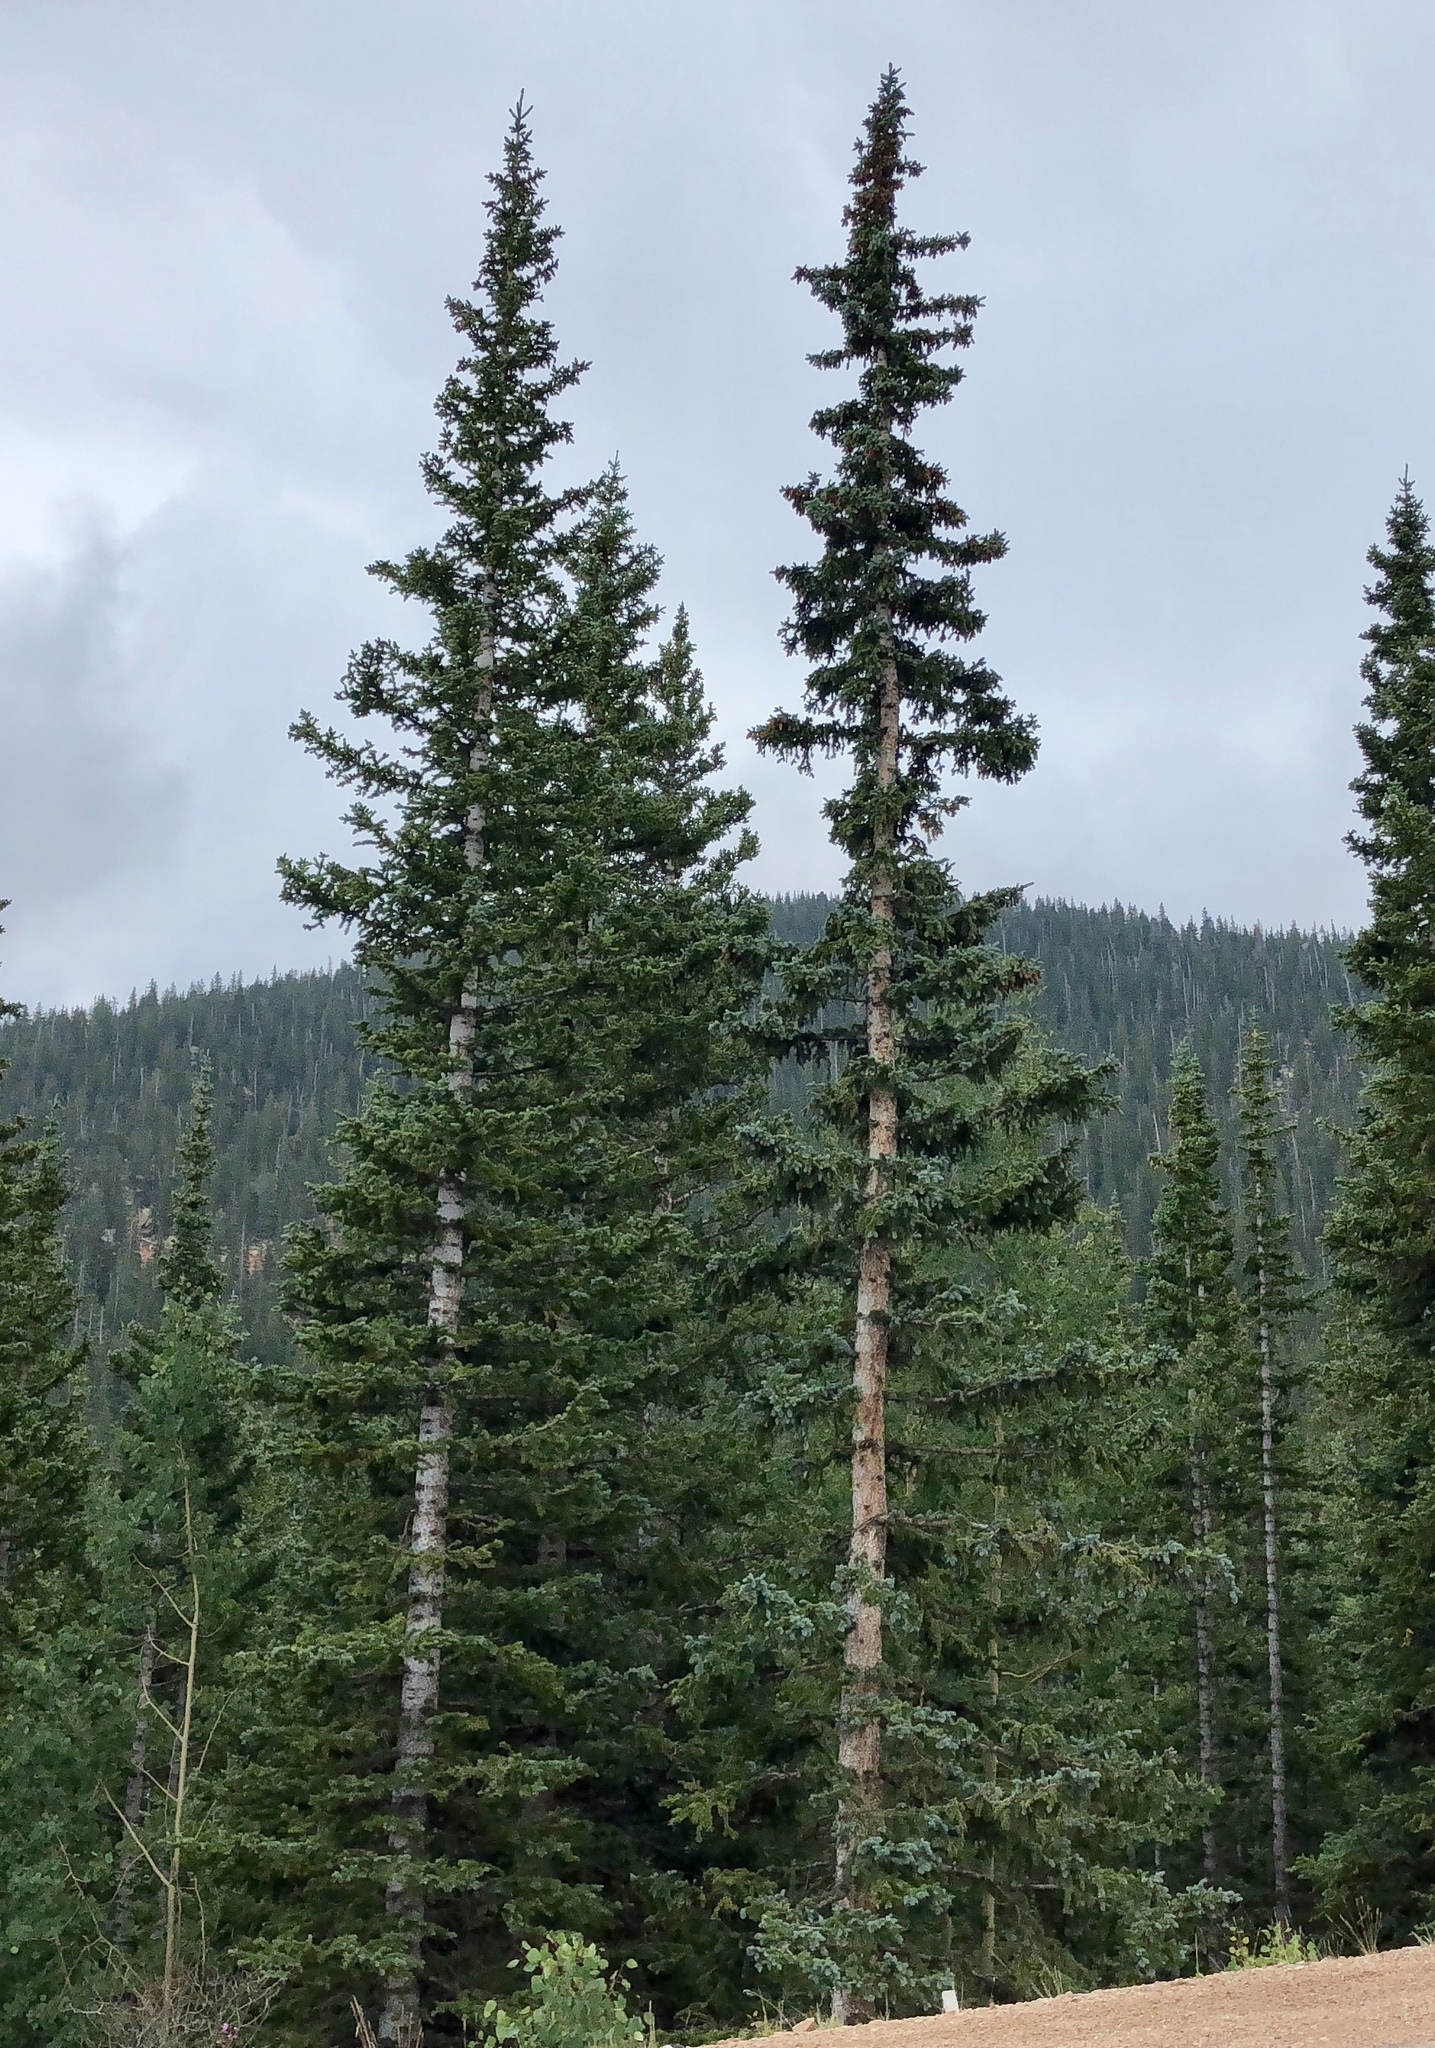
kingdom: Plantae
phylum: Tracheophyta
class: Pinopsida
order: Pinales
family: Pinaceae
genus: Abies
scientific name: Abies lasiocarpa
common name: Subalpine fir
